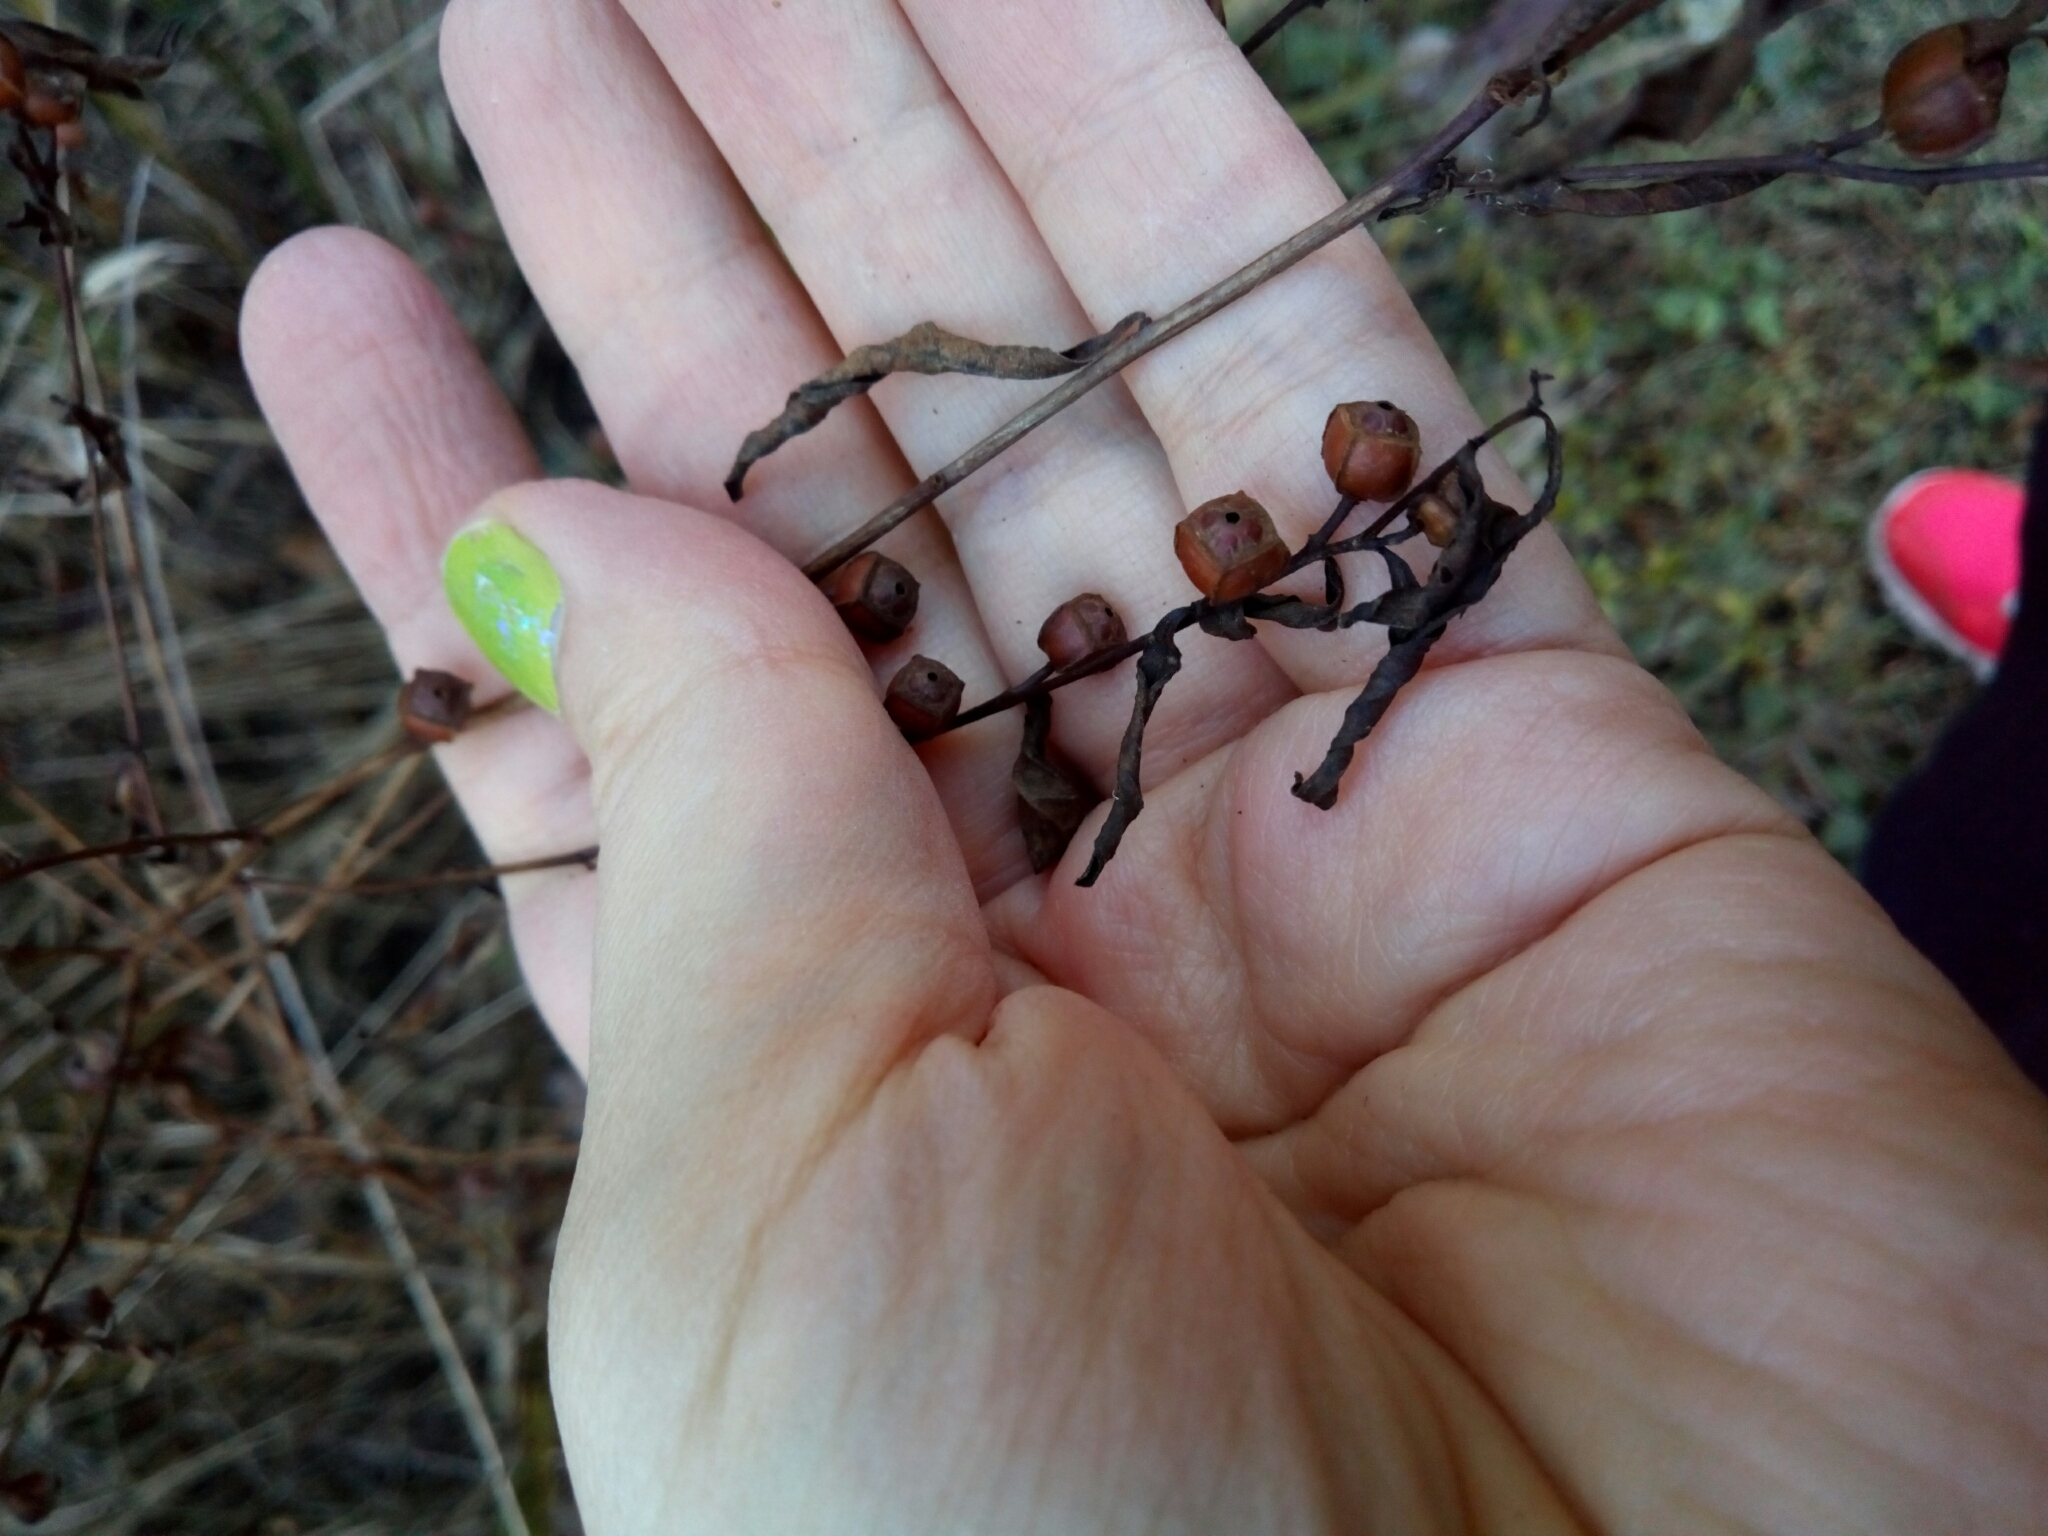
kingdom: Plantae
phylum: Tracheophyta
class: Magnoliopsida
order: Myrtales
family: Onagraceae
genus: Ludwigia
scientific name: Ludwigia alternifolia
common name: Rattlebox
